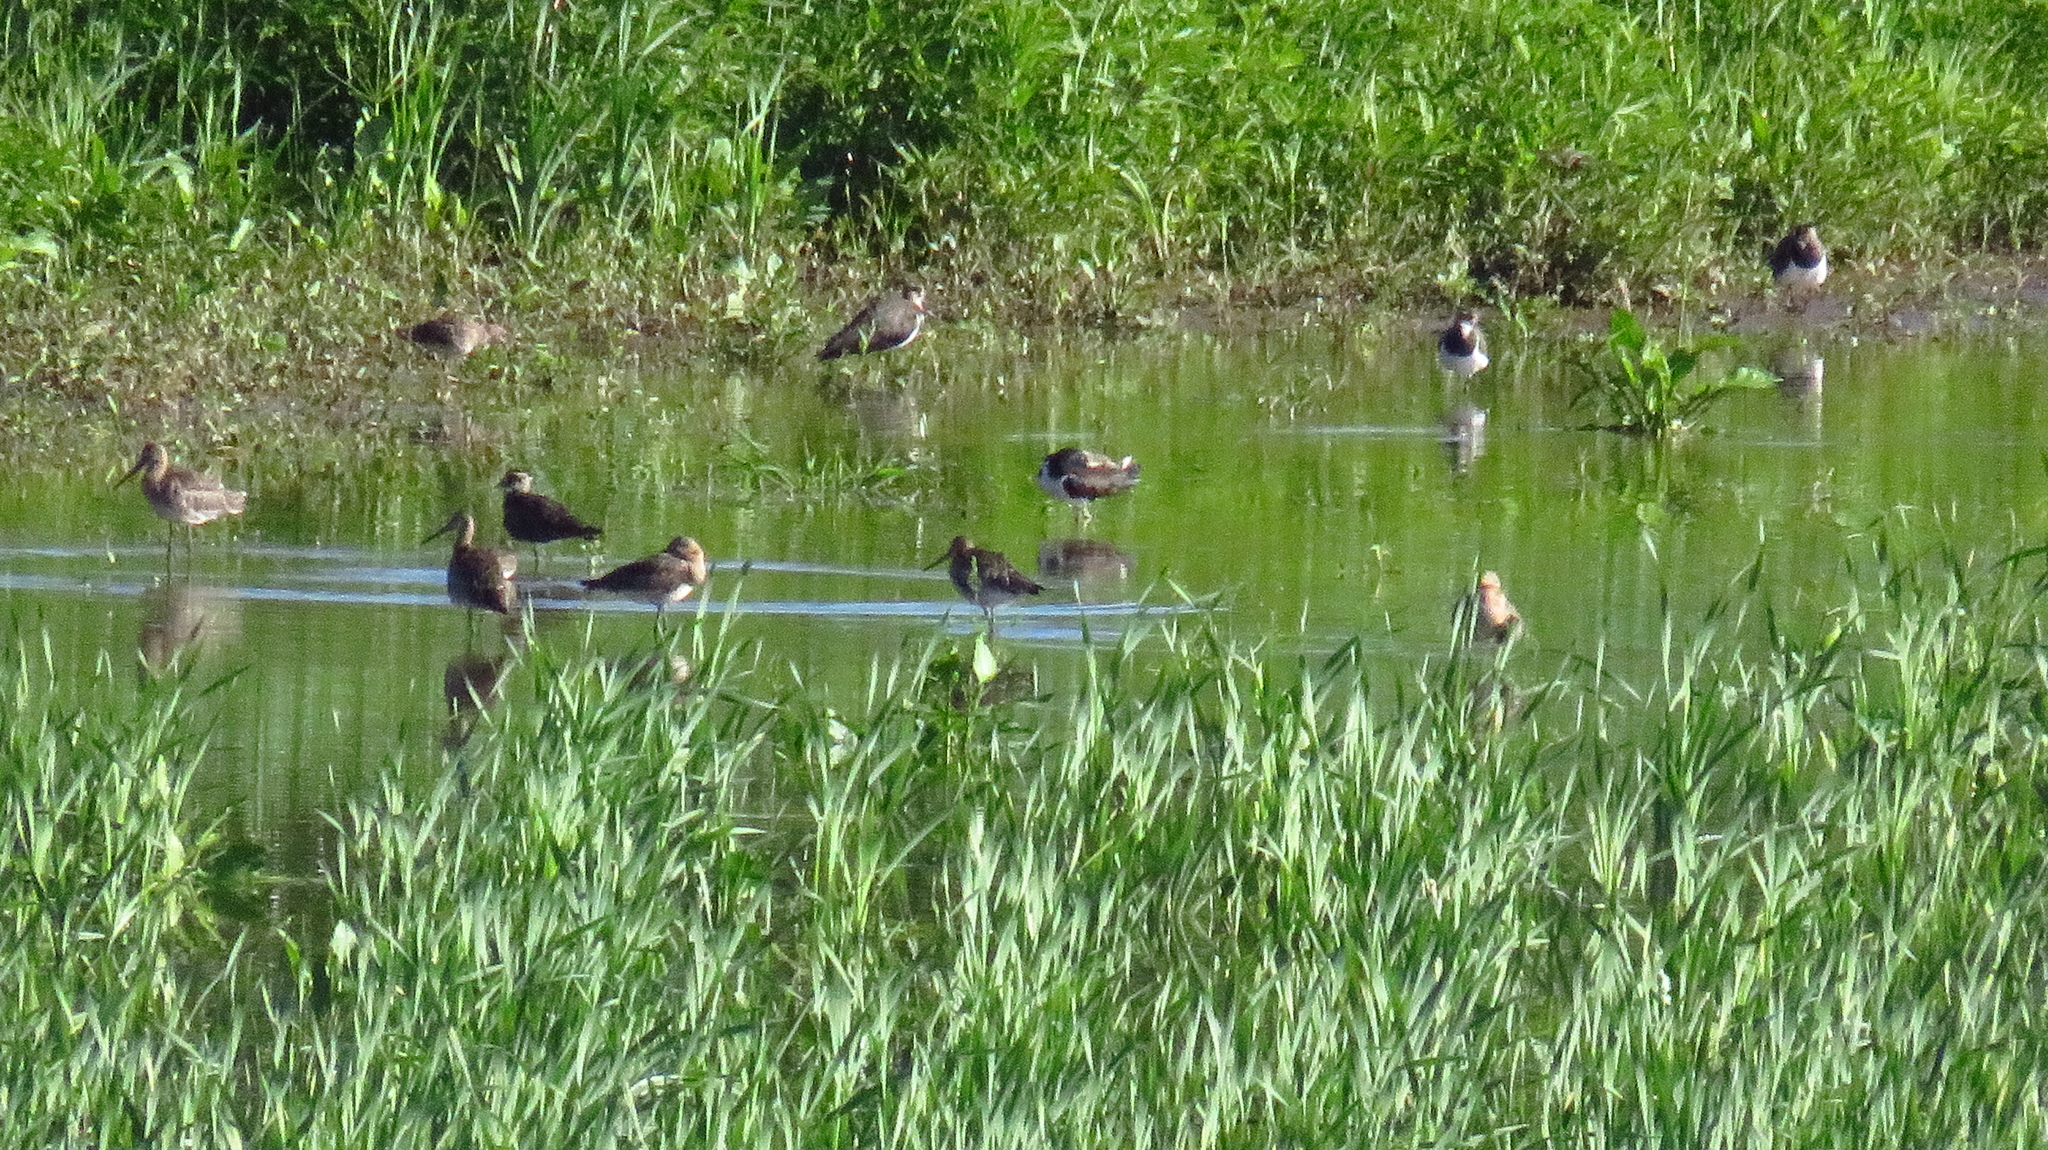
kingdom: Animalia
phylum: Chordata
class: Aves
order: Charadriiformes
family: Scolopacidae
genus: Limosa
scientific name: Limosa limosa
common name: Black-tailed godwit
